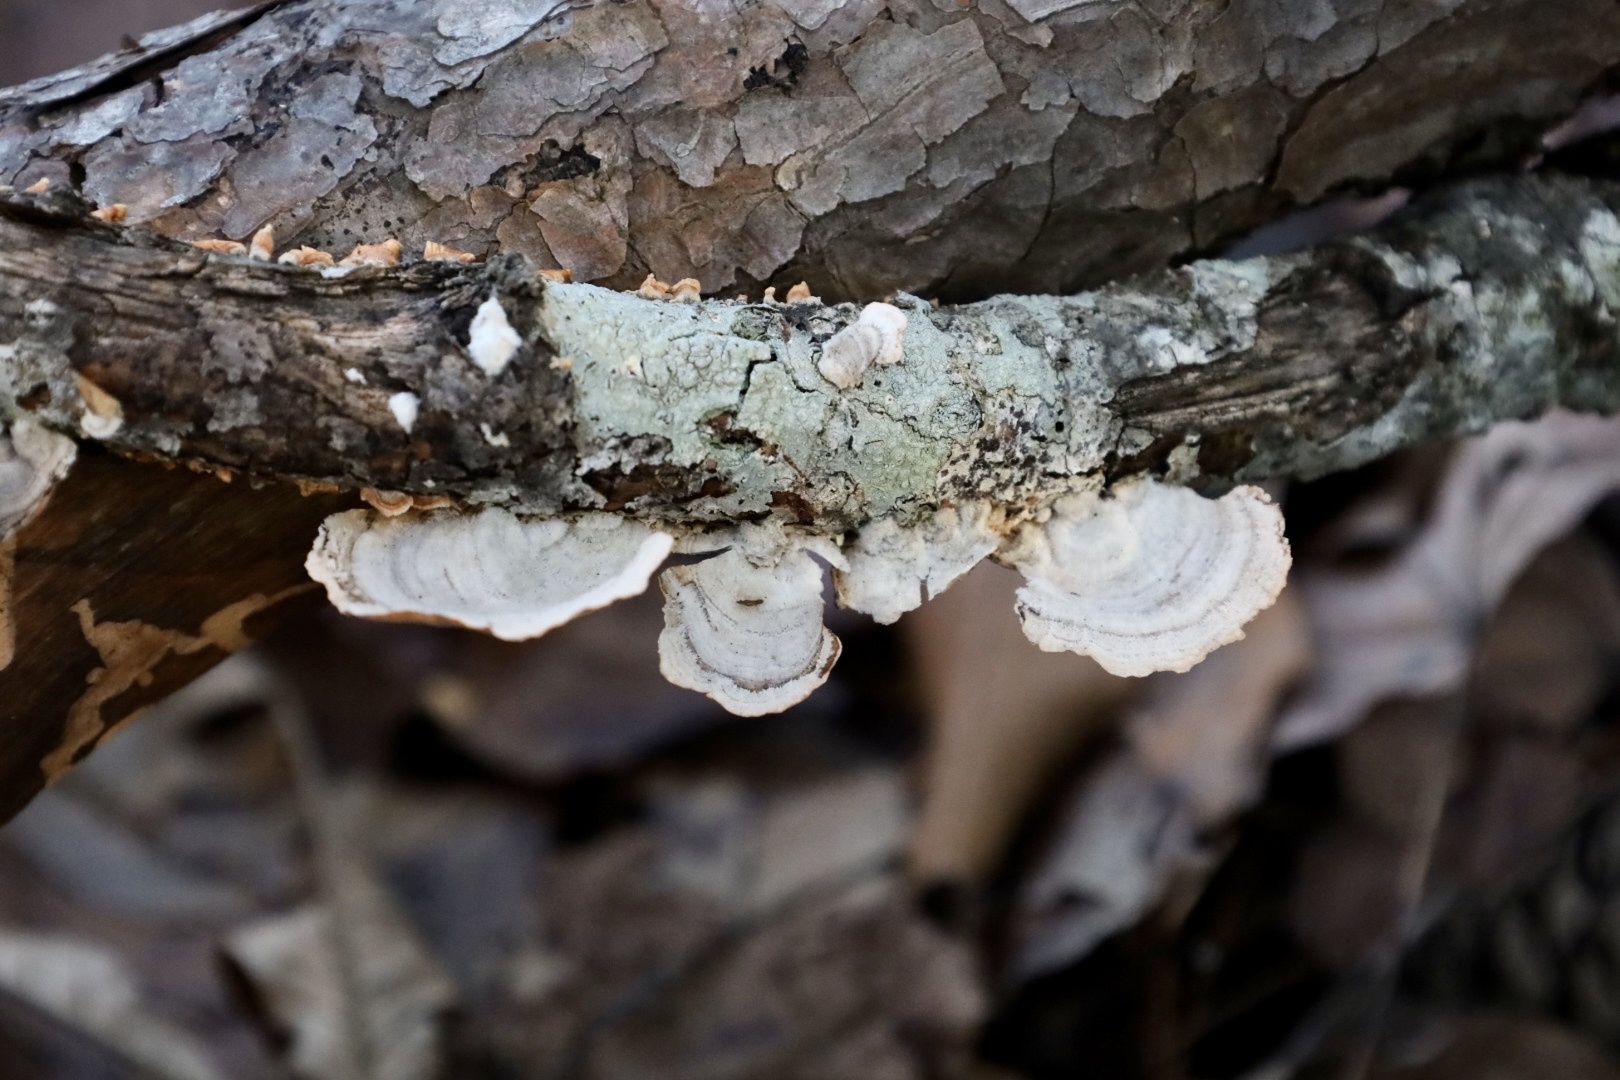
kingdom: Fungi
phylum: Basidiomycota
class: Agaricomycetes
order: Russulales
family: Stereaceae
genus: Stereum
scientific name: Stereum ostrea
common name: False turkeytail
